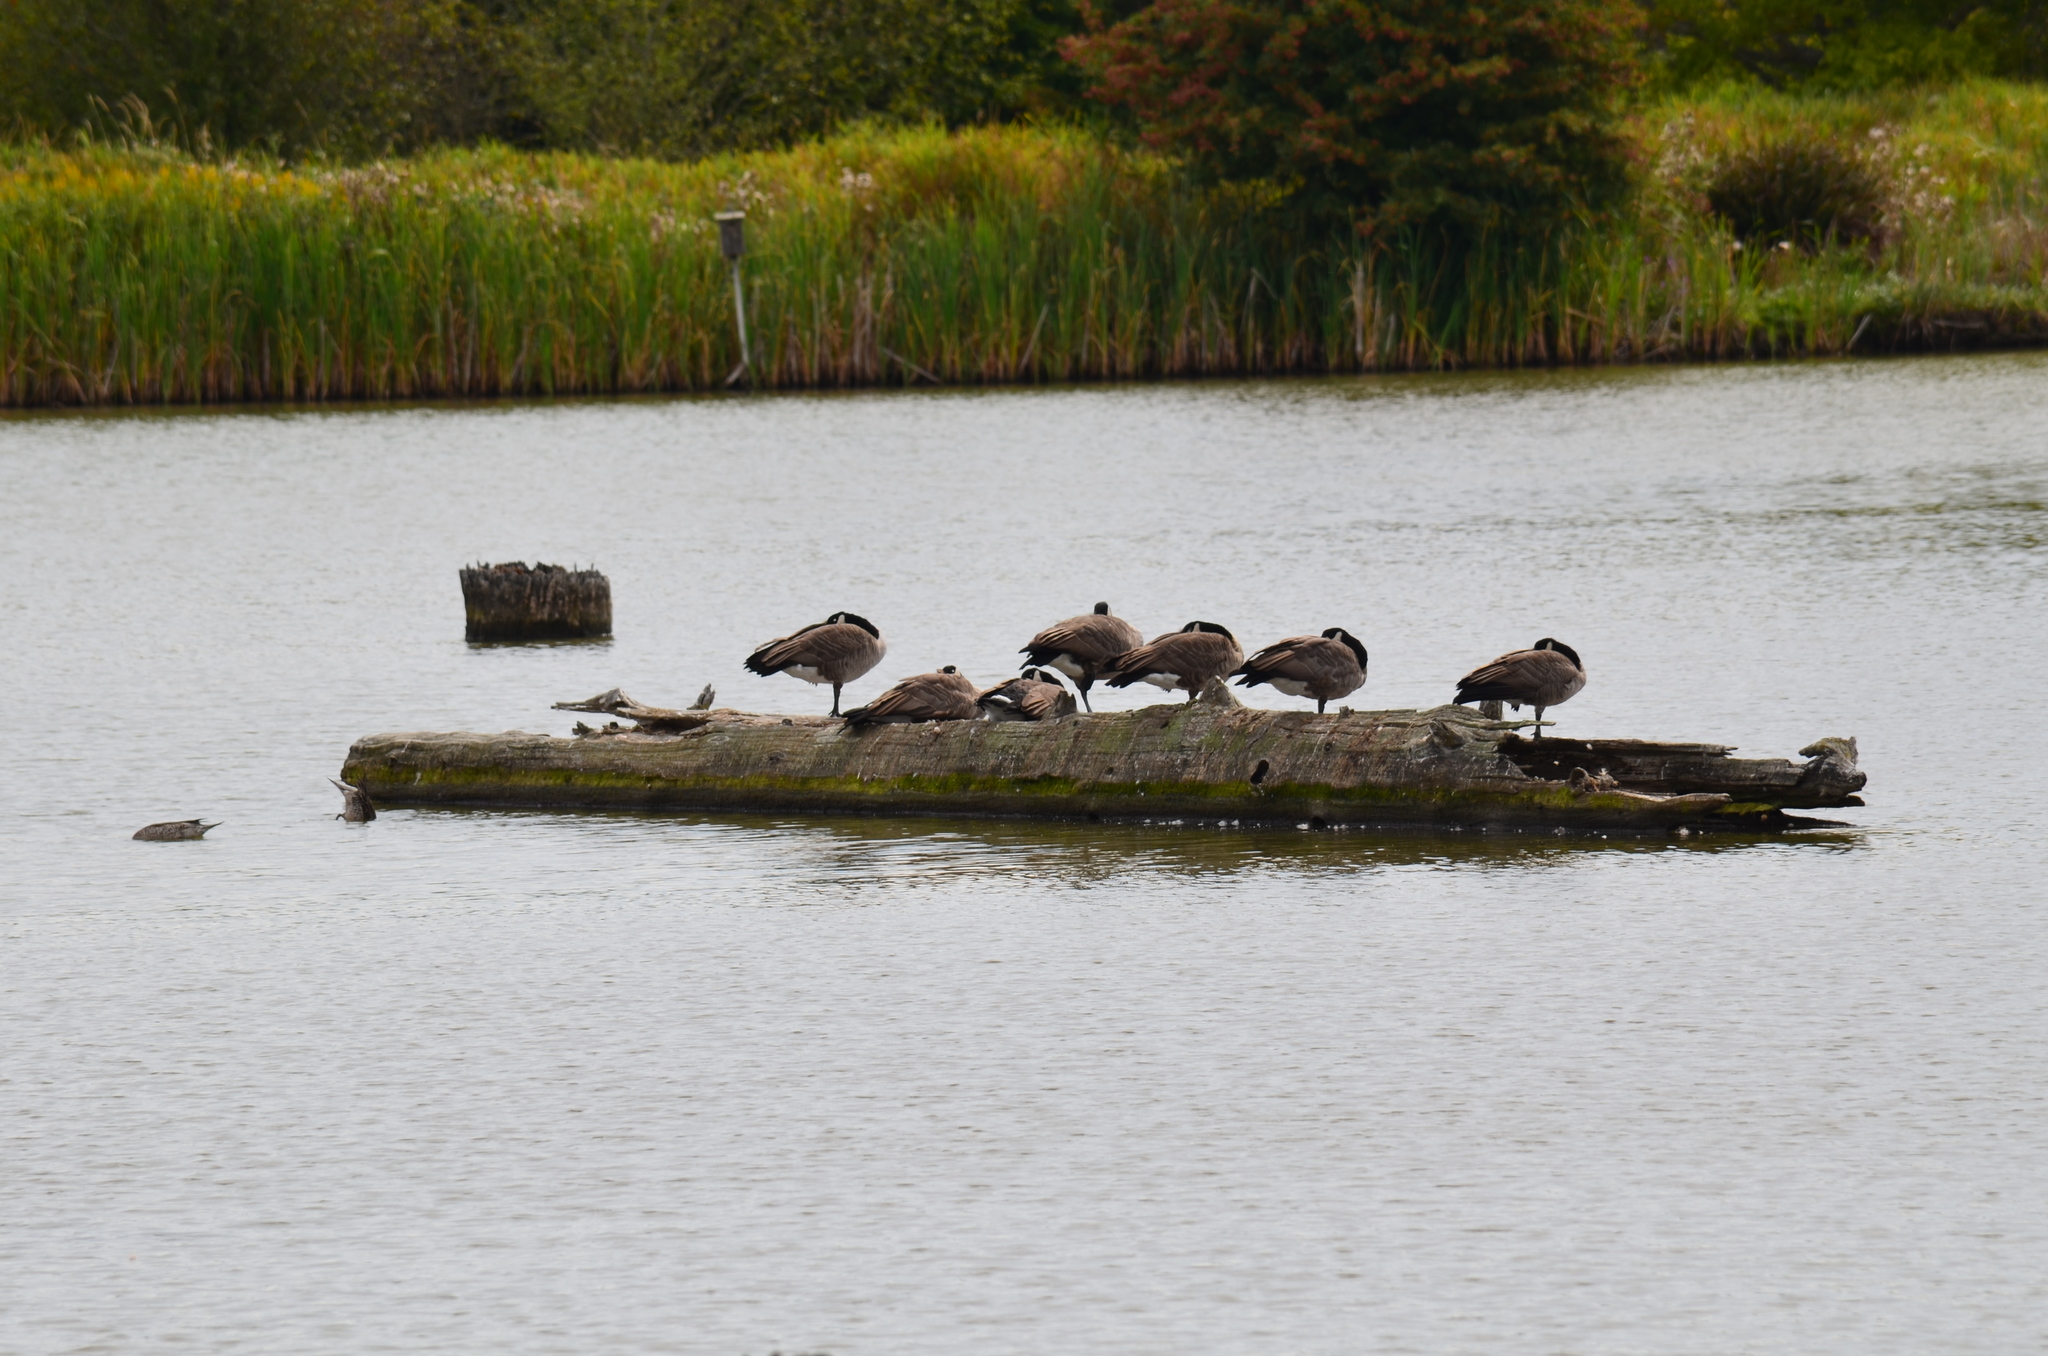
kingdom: Animalia
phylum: Chordata
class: Aves
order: Anseriformes
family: Anatidae
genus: Branta
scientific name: Branta canadensis
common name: Canada goose
